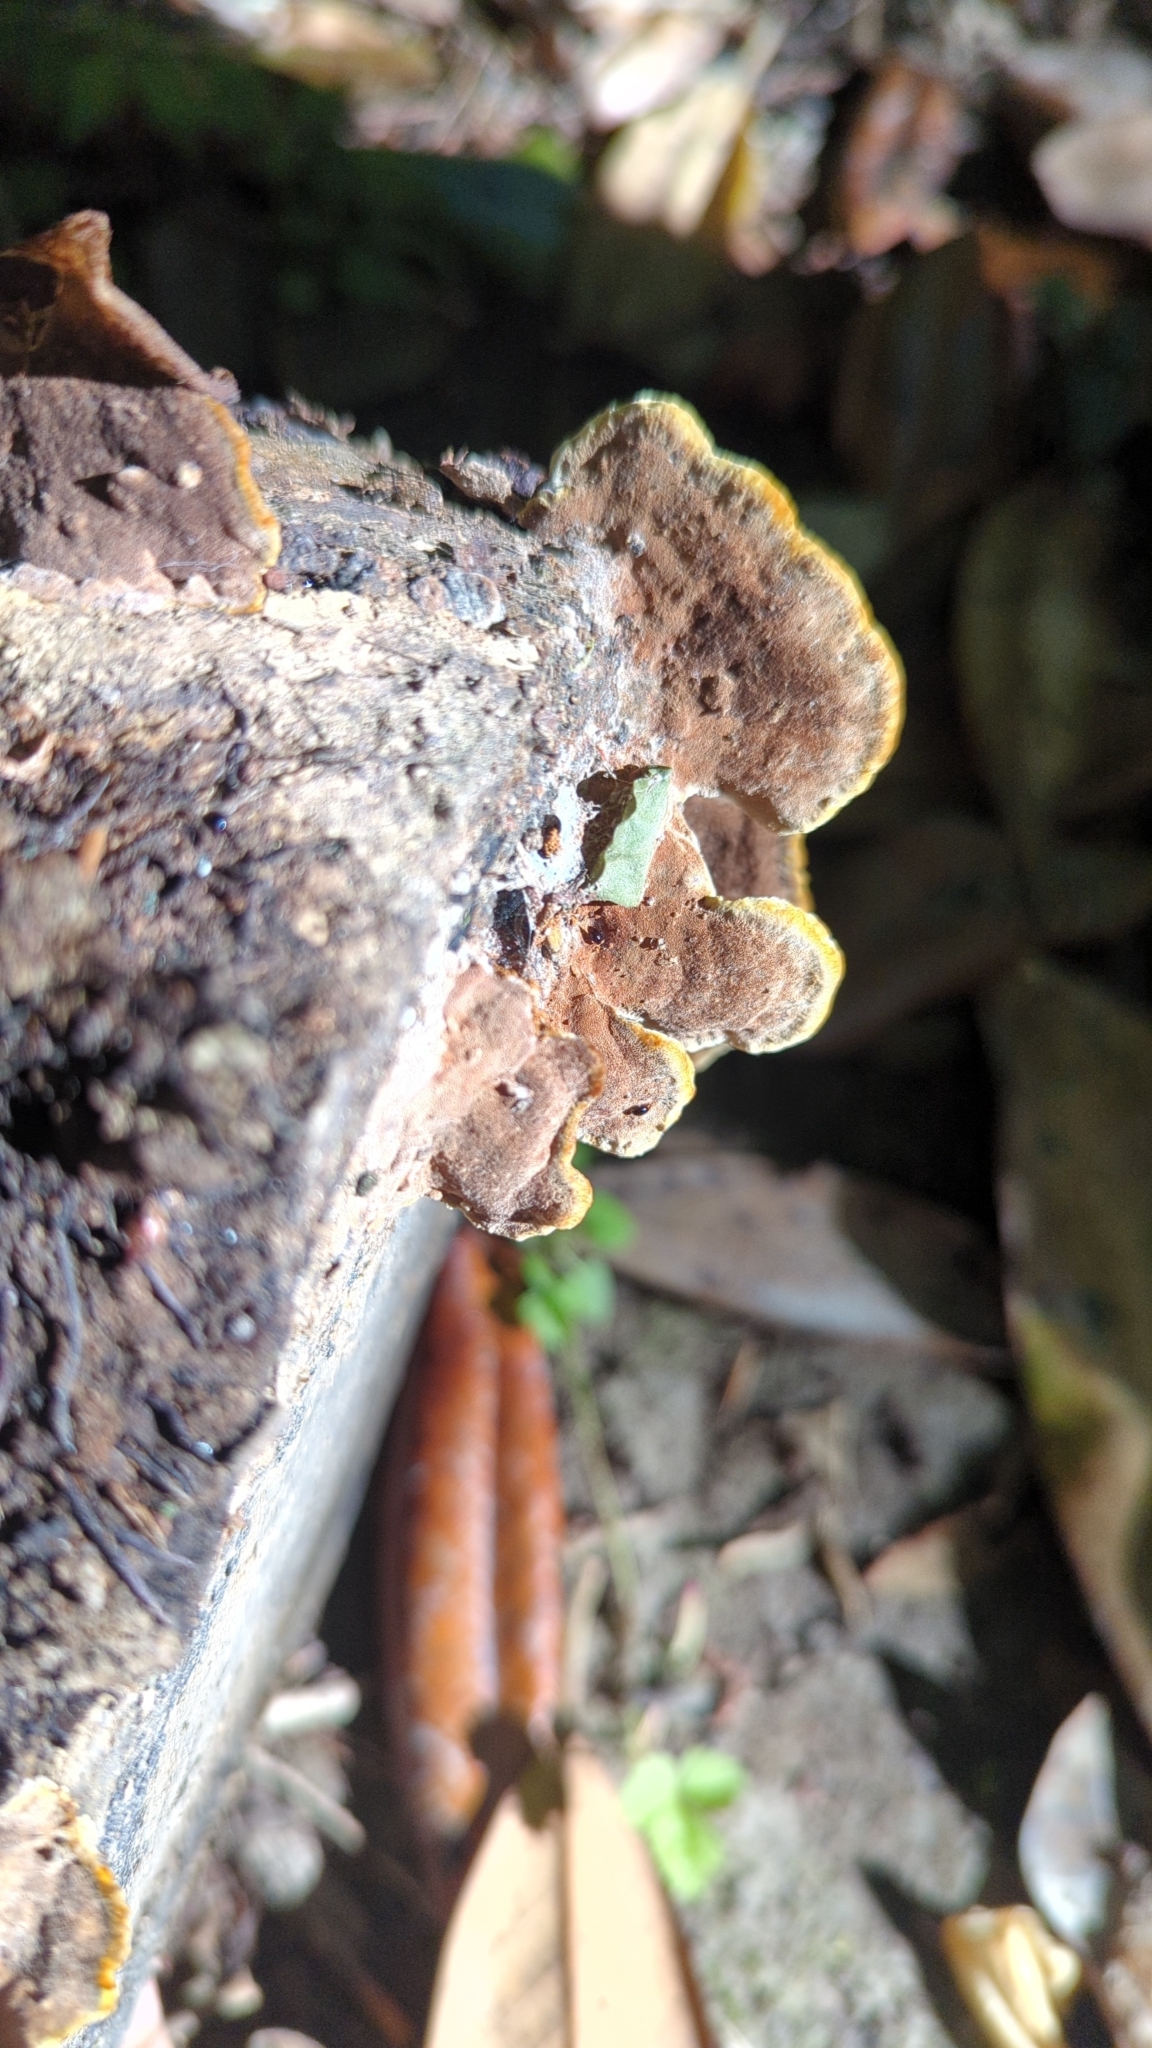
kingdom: Fungi
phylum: Basidiomycota
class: Agaricomycetes
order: Hymenochaetales
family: Hymenochaetaceae
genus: Phellinus
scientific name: Phellinus gilvus
